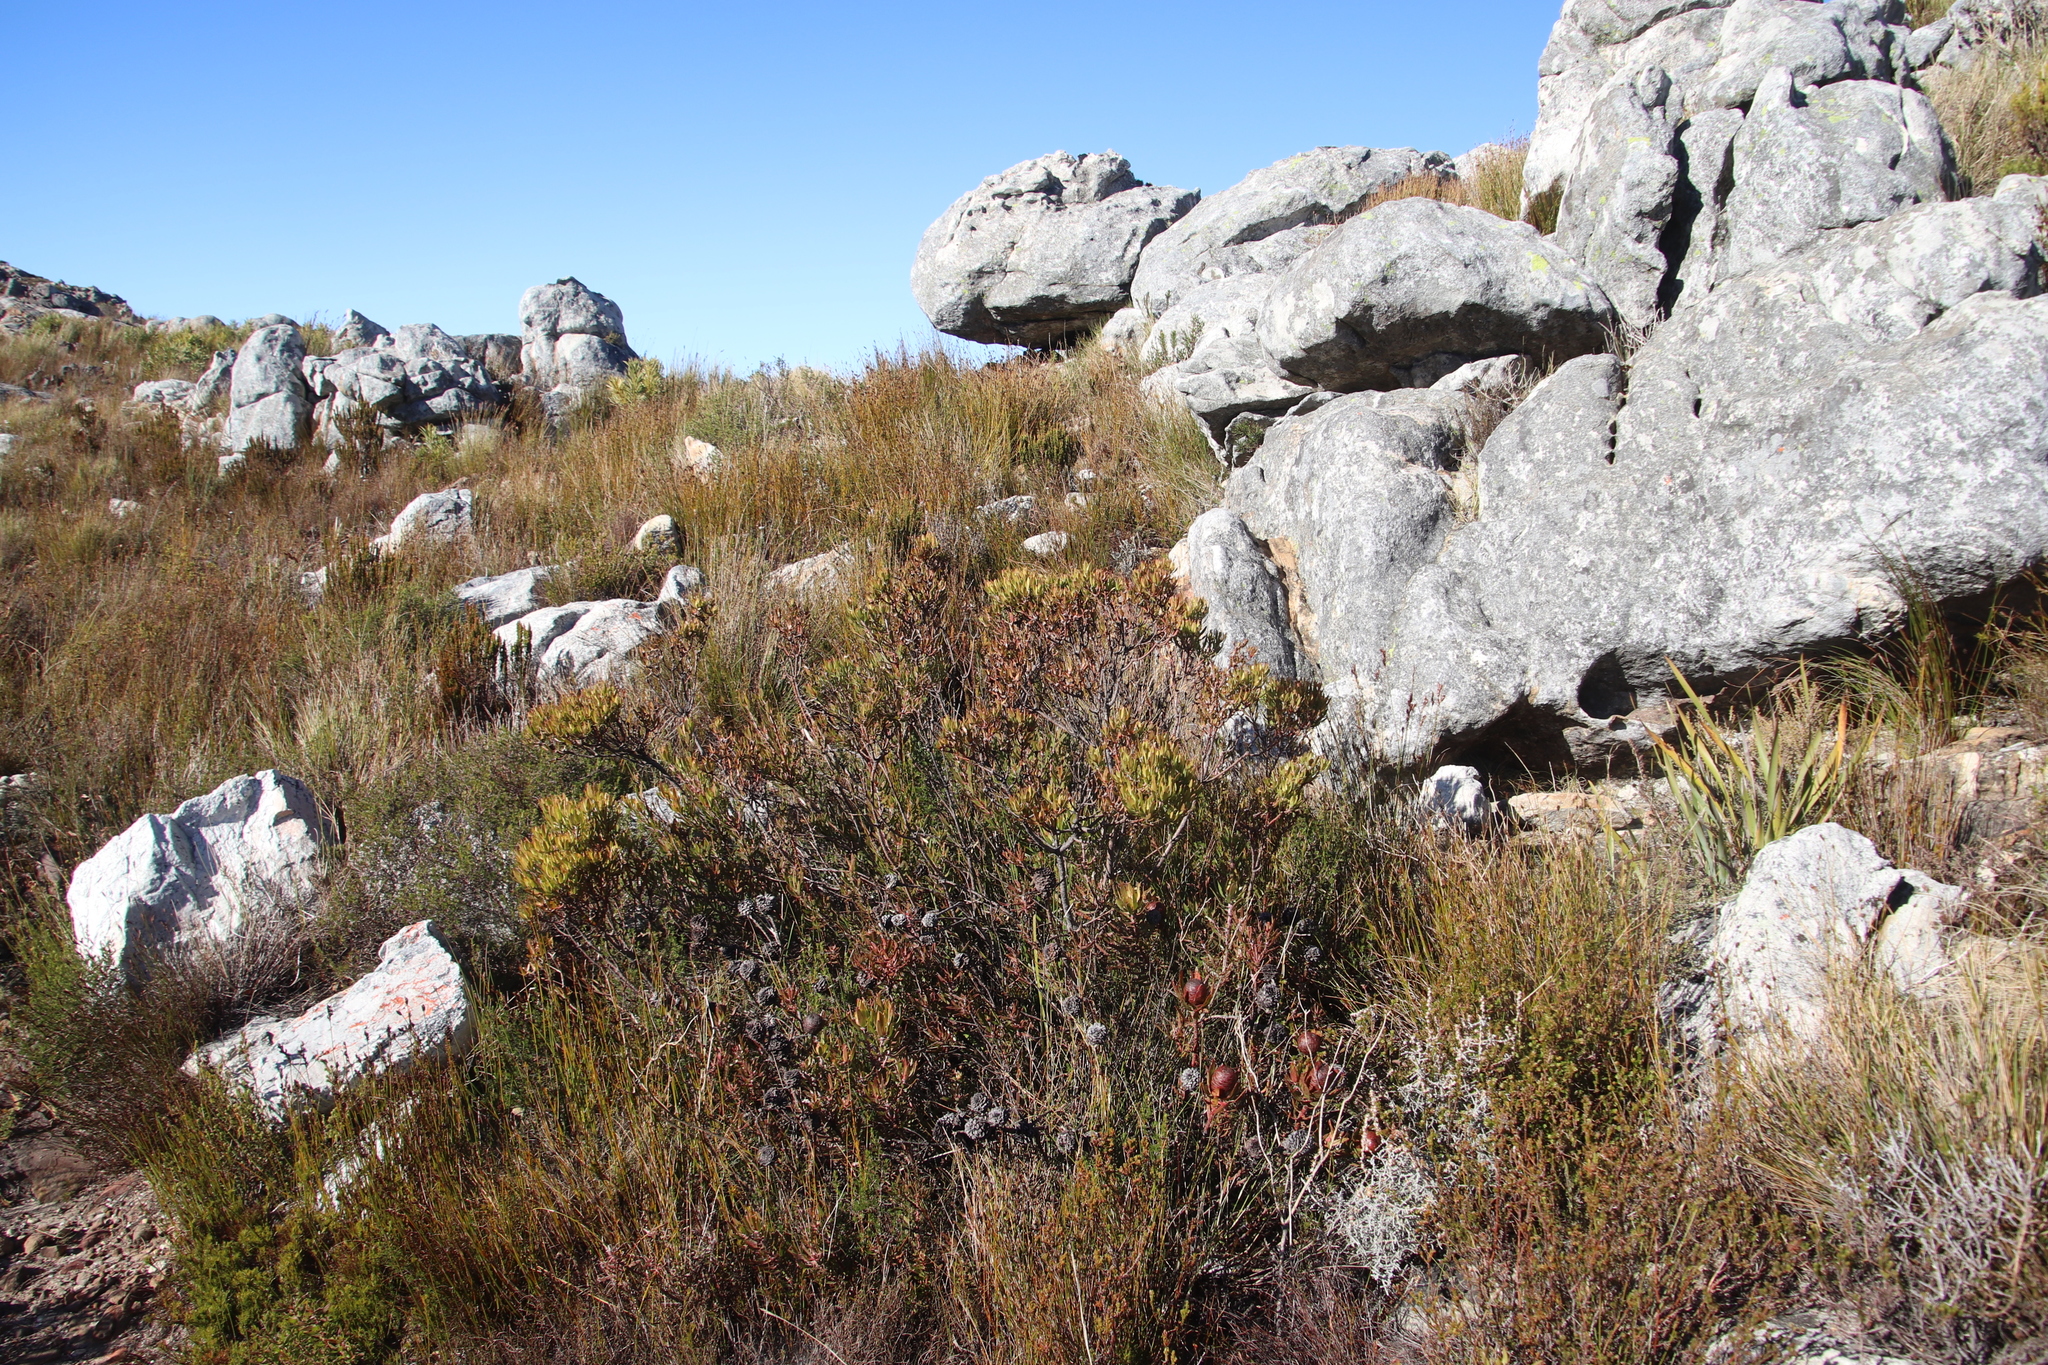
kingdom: Plantae
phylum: Tracheophyta
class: Magnoliopsida
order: Proteales
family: Proteaceae
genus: Leucadendron
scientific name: Leucadendron spissifolium
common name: Spear-leaf conebush
